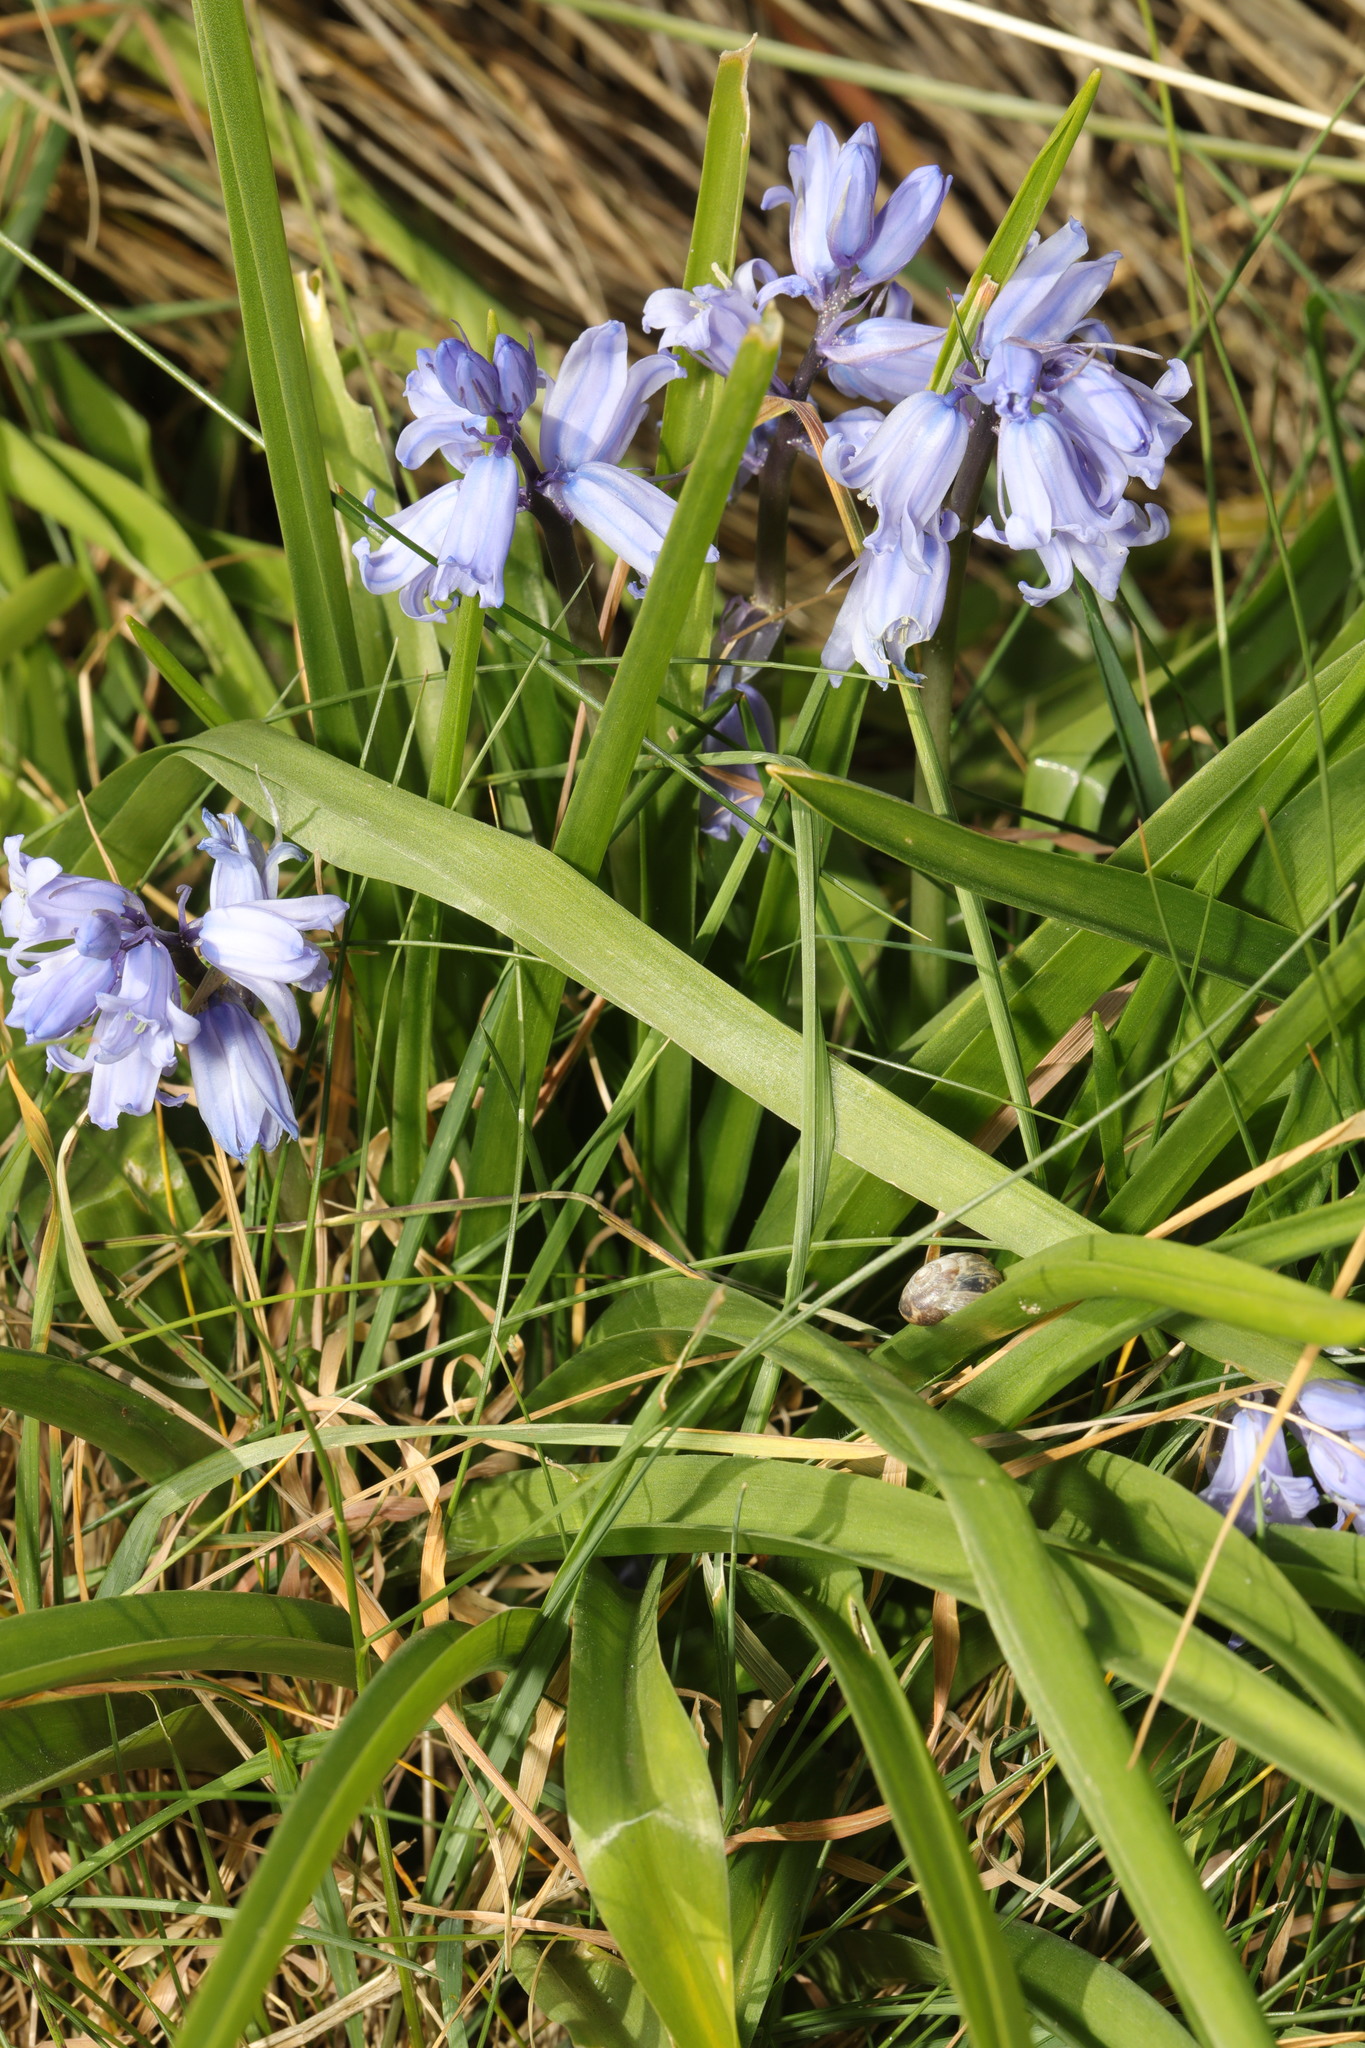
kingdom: Plantae
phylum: Tracheophyta
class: Liliopsida
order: Asparagales
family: Asparagaceae
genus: Hyacinthoides
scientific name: Hyacinthoides hispanica
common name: Spanish bluebell
